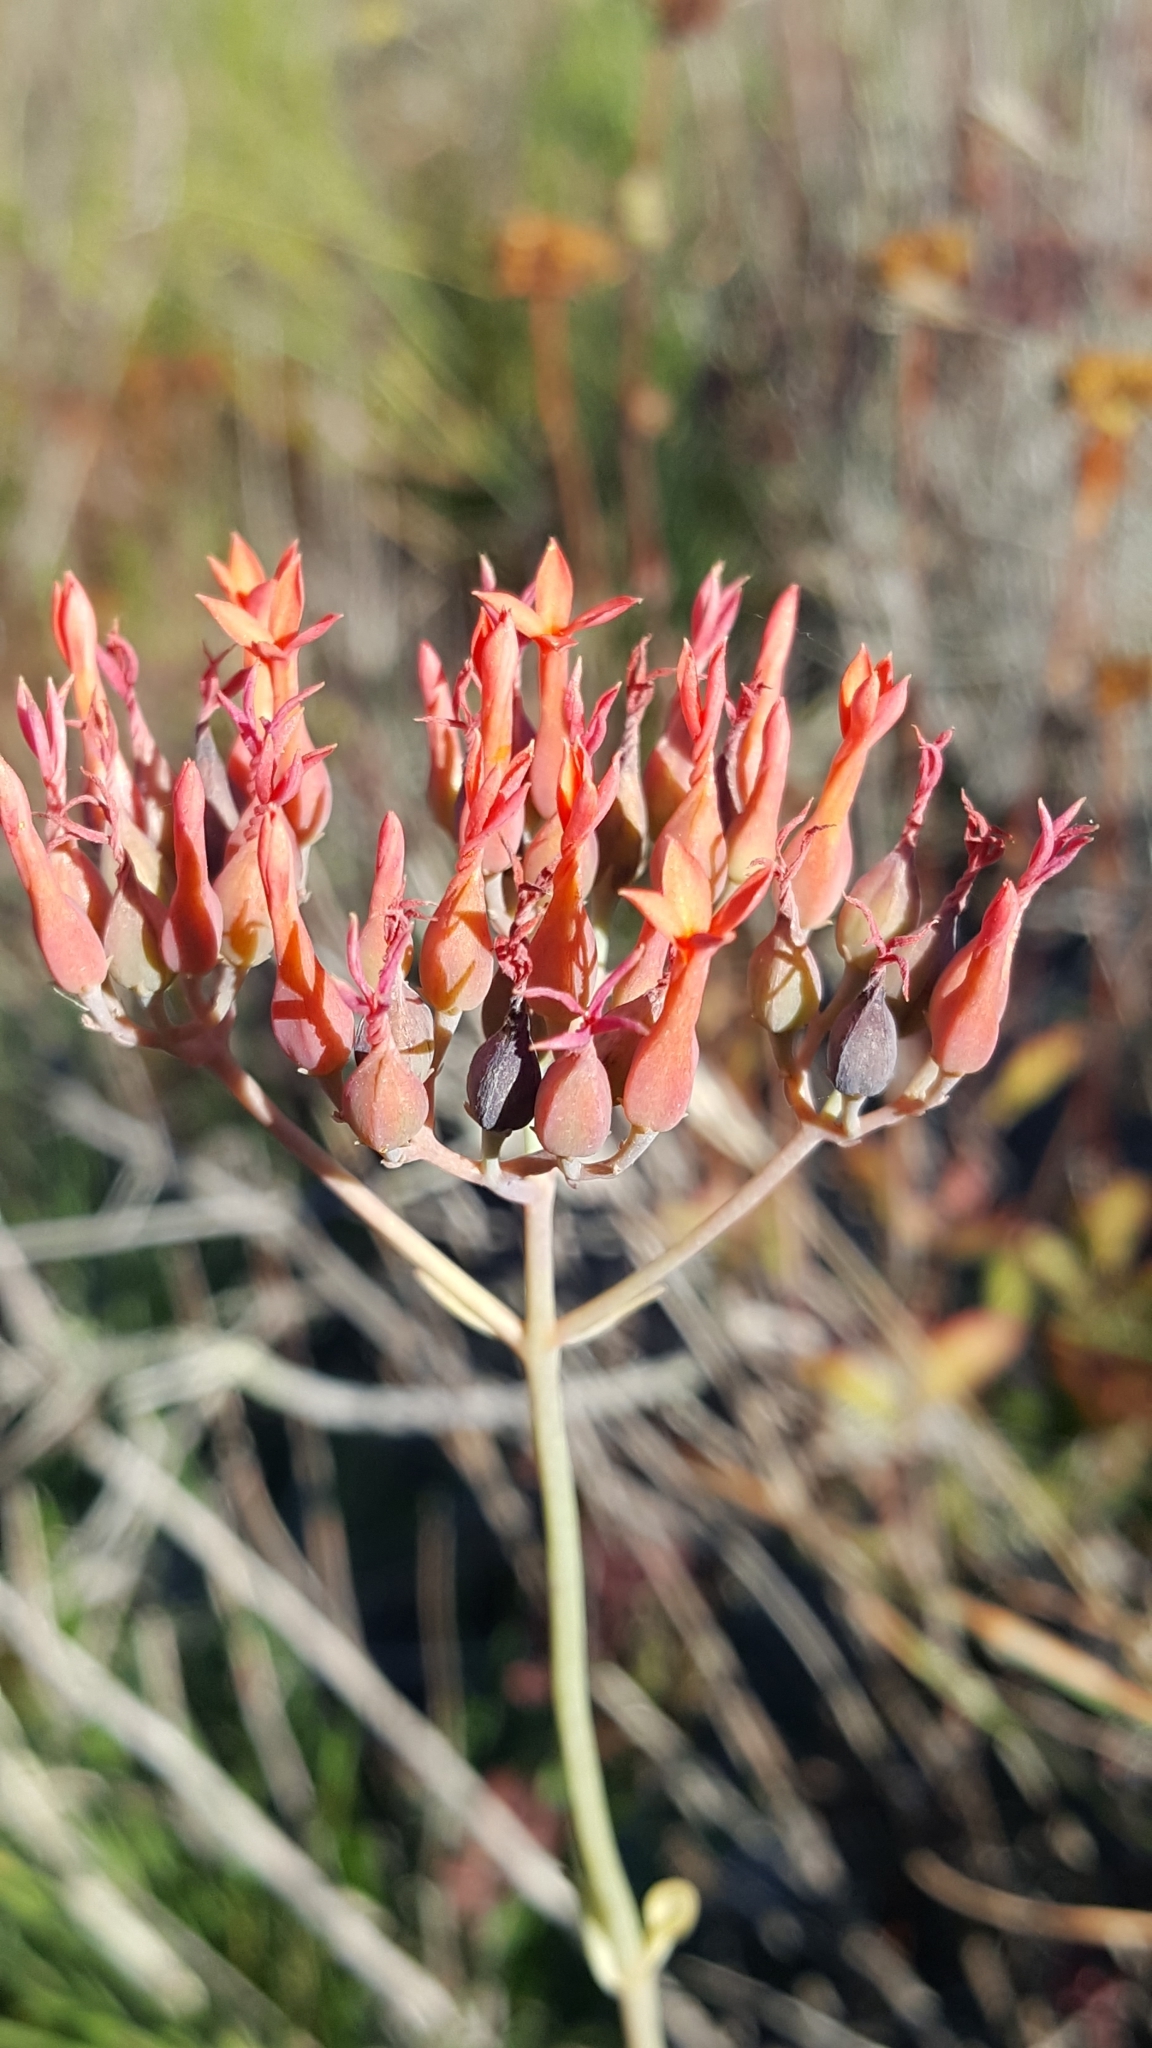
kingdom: Plantae
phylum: Tracheophyta
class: Magnoliopsida
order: Saxifragales
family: Crassulaceae
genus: Kalanchoe
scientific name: Kalanchoe rotundifolia
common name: Common kalanchoe
